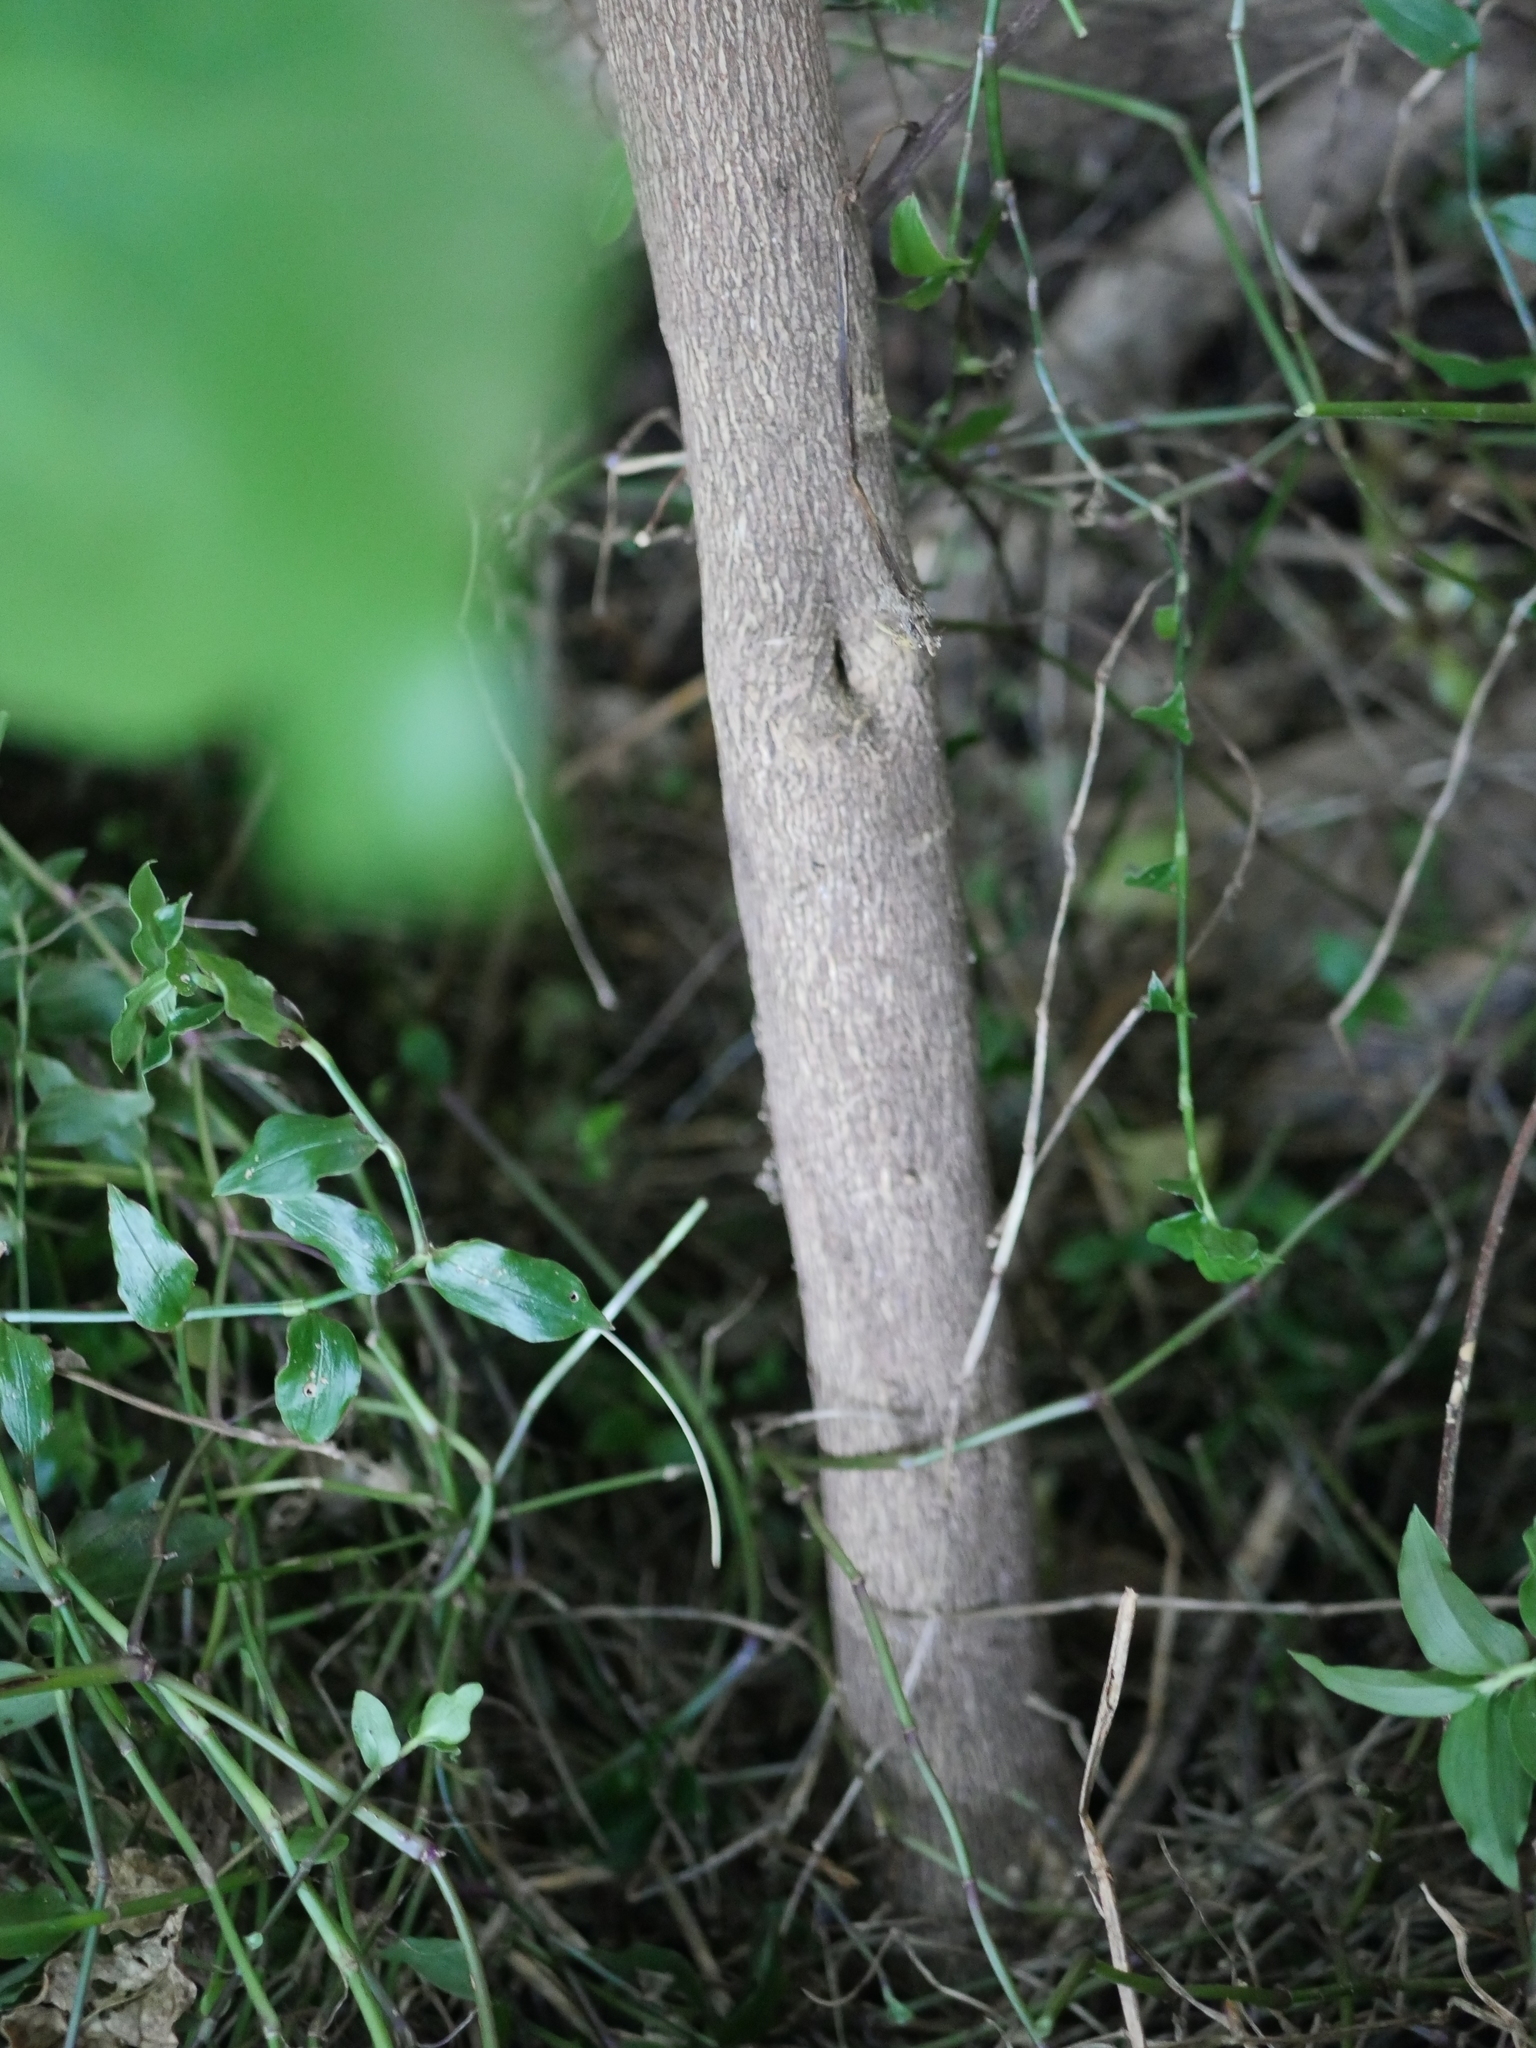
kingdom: Plantae
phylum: Tracheophyta
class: Magnoliopsida
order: Sapindales
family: Rutaceae
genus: Melicope
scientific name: Melicope ternata
